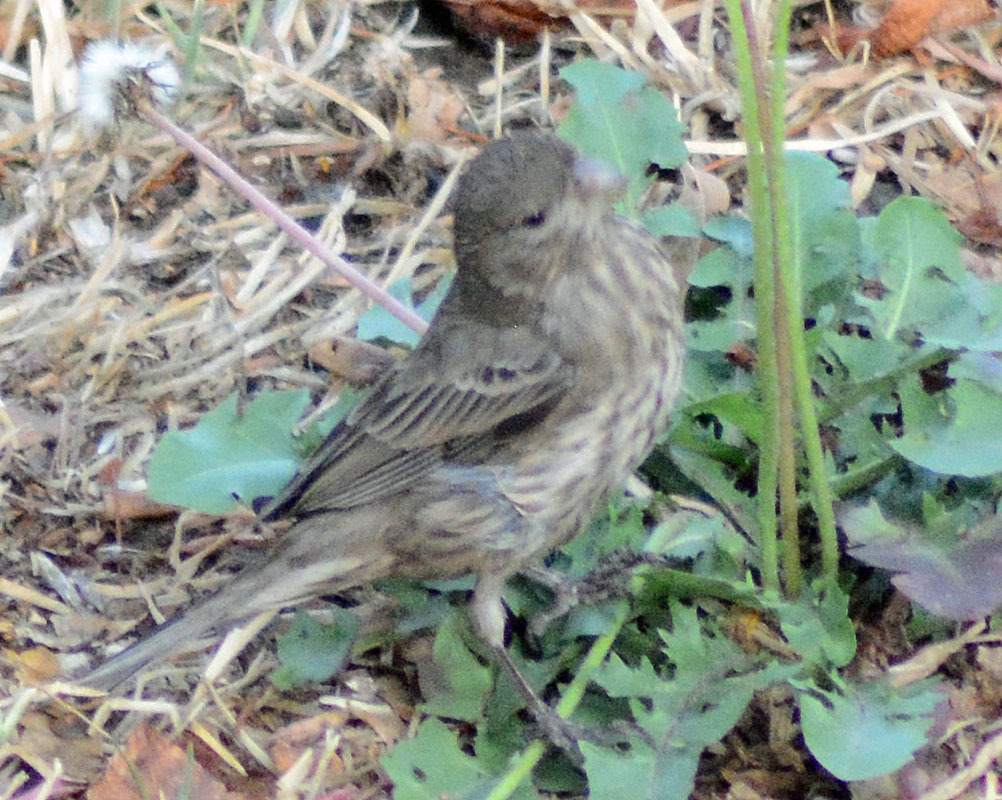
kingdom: Animalia
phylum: Chordata
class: Aves
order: Passeriformes
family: Fringillidae
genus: Haemorhous
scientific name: Haemorhous mexicanus
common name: House finch
